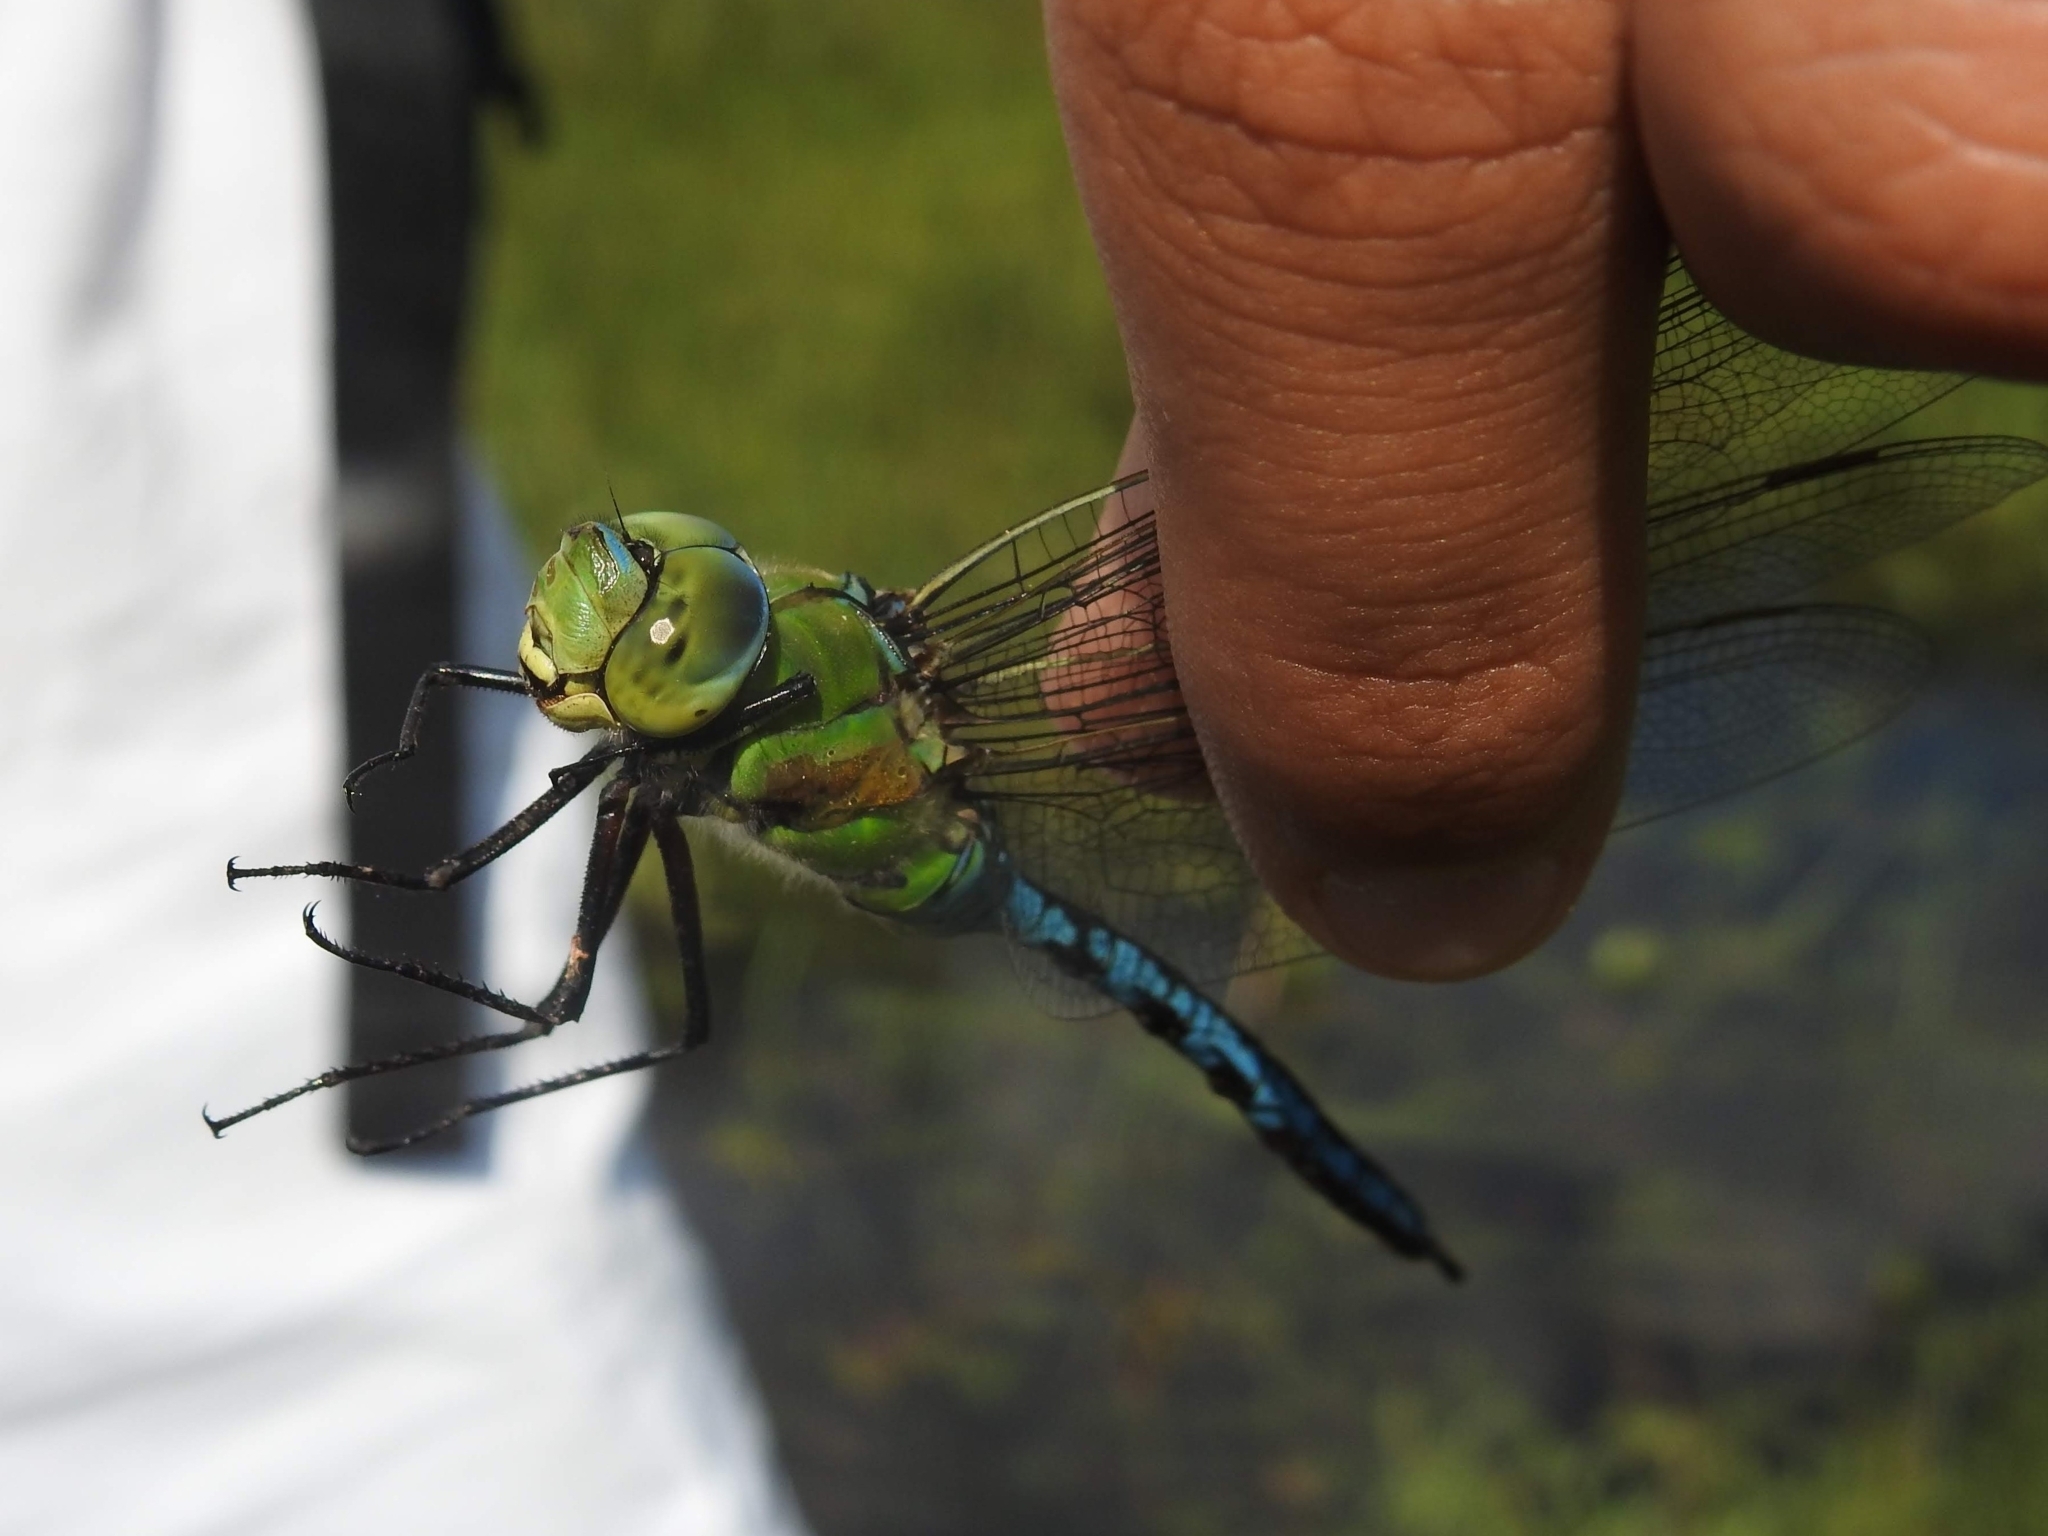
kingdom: Animalia
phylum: Arthropoda
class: Insecta
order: Odonata
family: Aeshnidae
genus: Anax
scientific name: Anax imperator
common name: Emperor dragonfly
